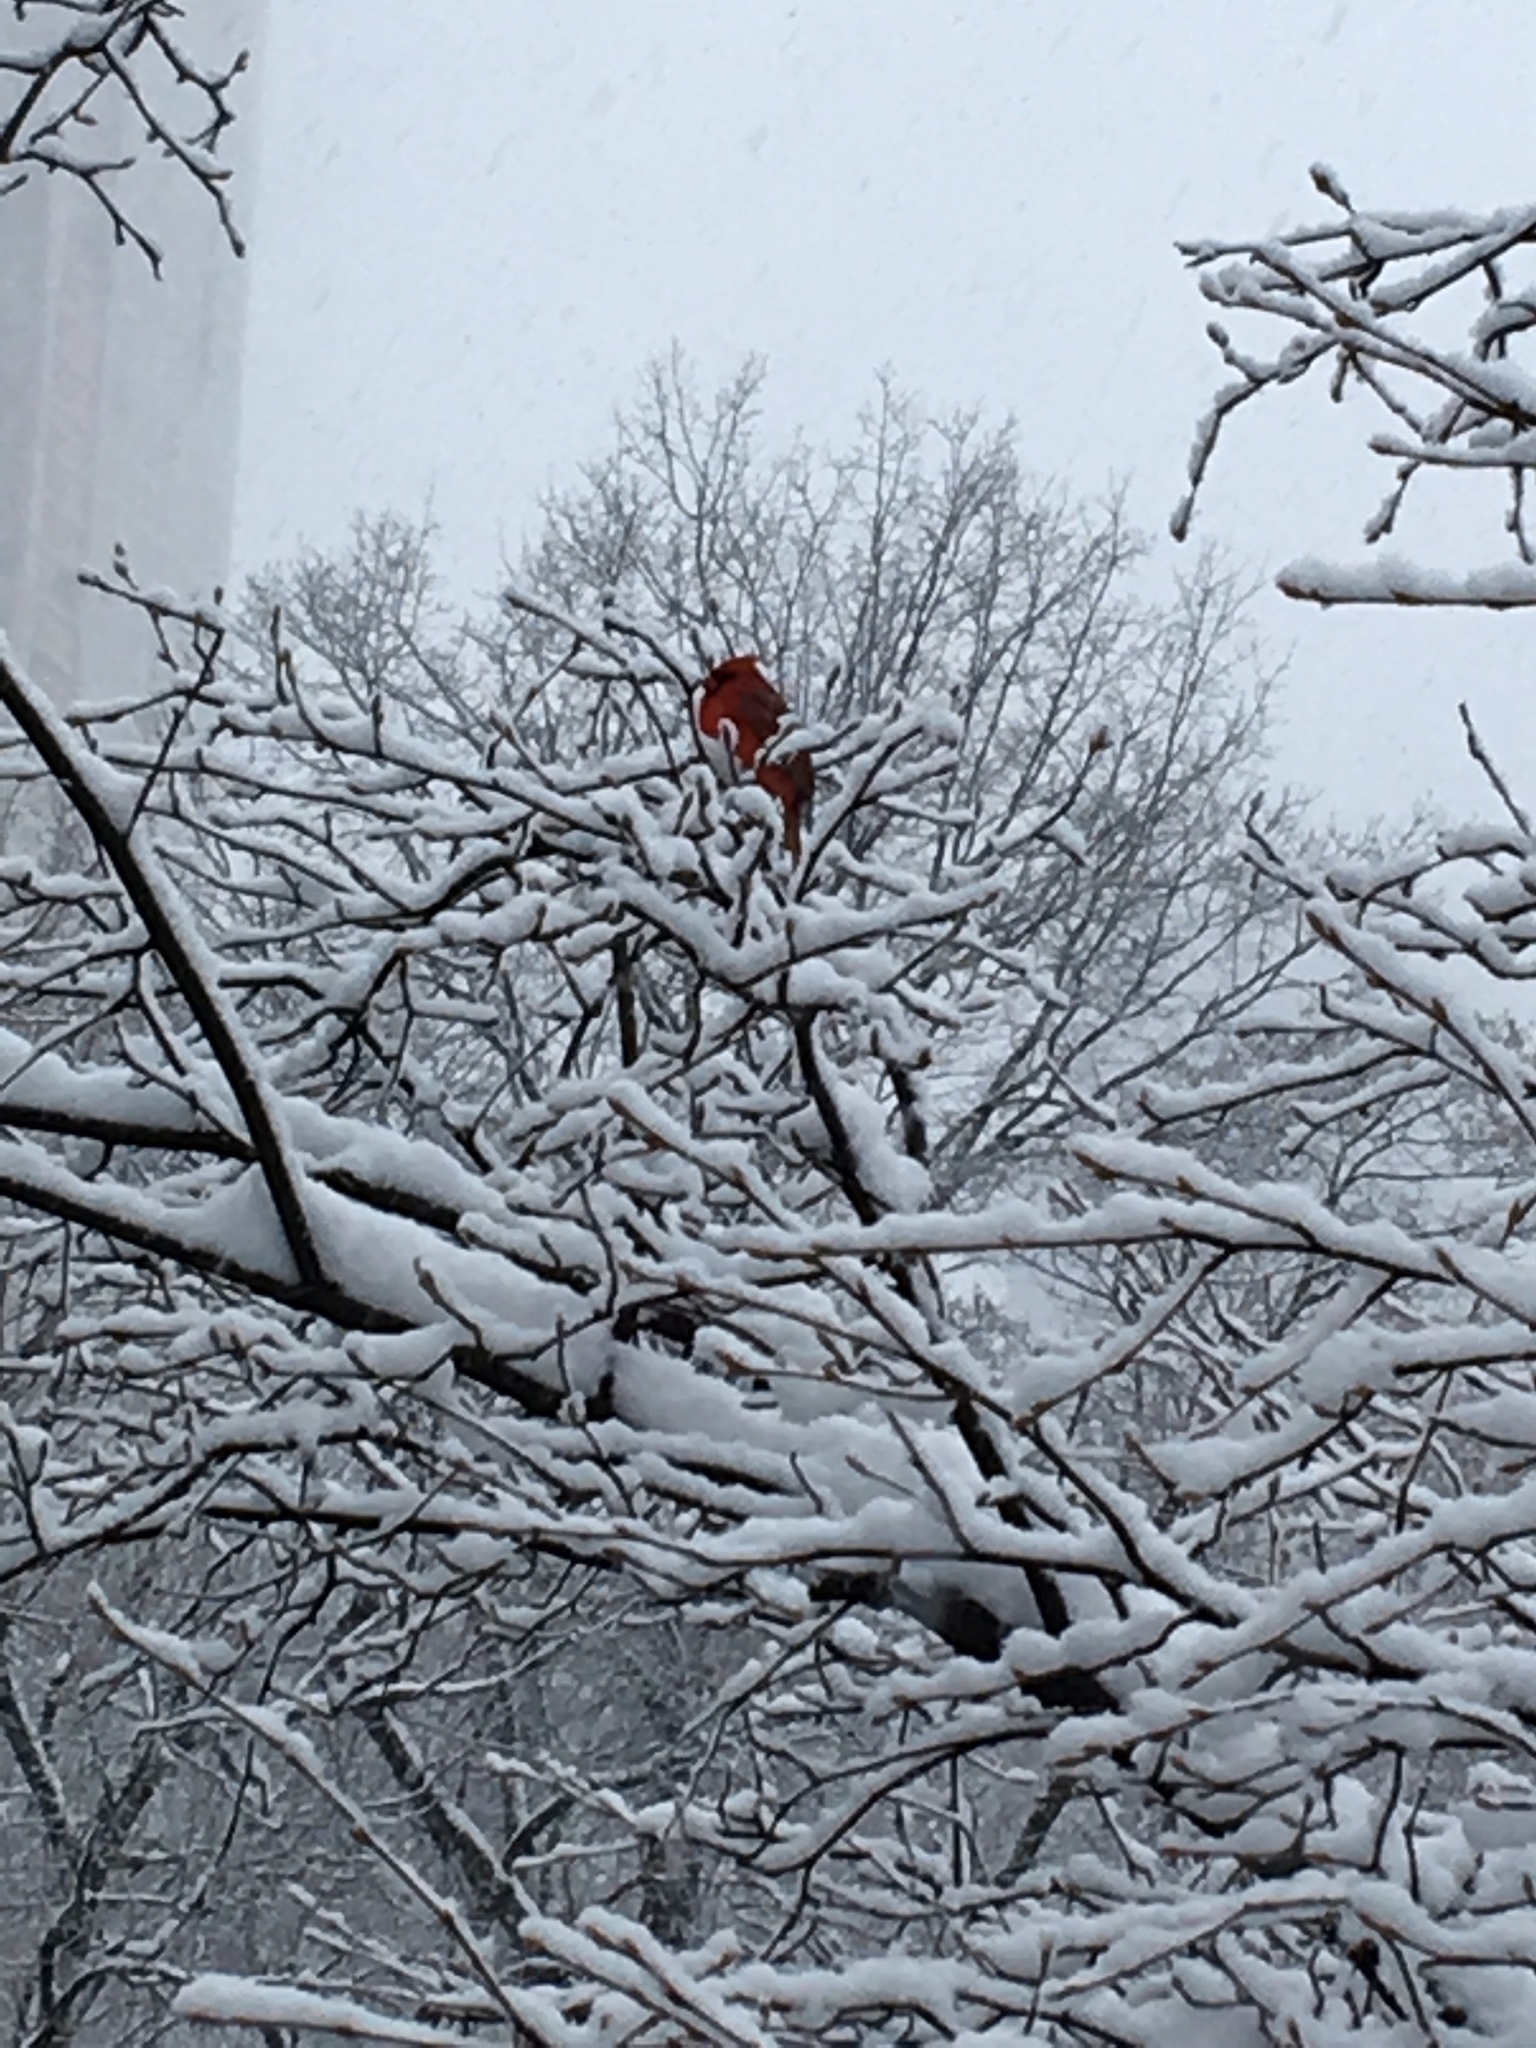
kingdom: Animalia
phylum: Chordata
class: Aves
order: Passeriformes
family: Cardinalidae
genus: Cardinalis
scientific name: Cardinalis cardinalis
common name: Northern cardinal
